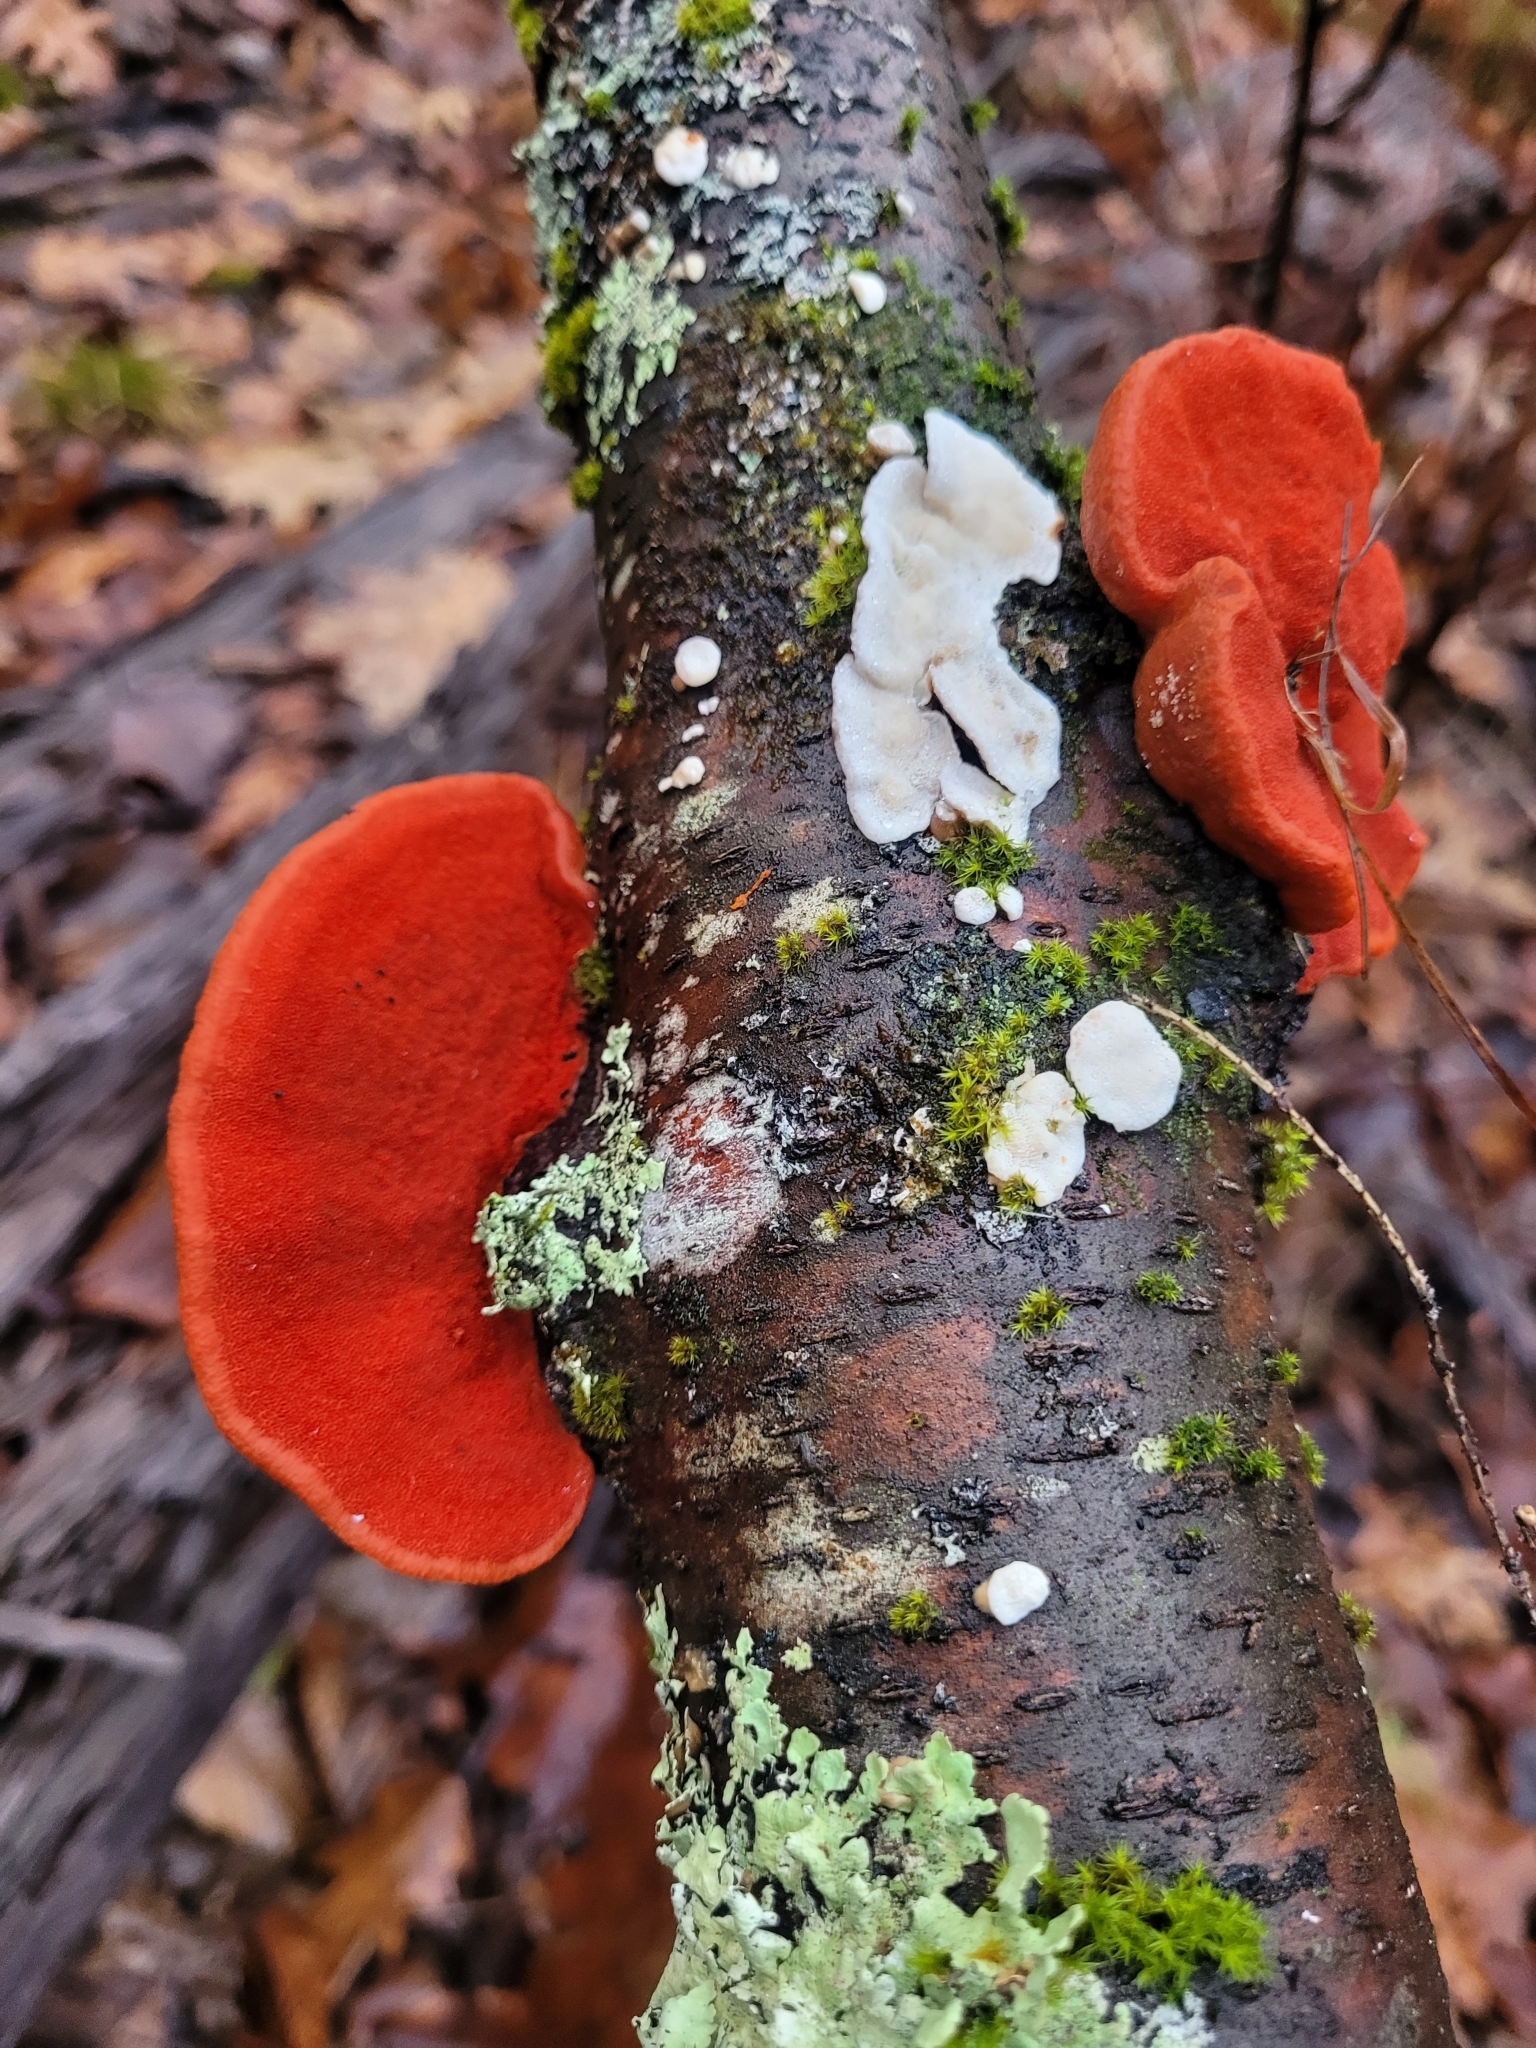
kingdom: Fungi
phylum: Basidiomycota
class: Agaricomycetes
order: Polyporales
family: Polyporaceae
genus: Trametes
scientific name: Trametes cinnabarina
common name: Northern cinnabar polypore
